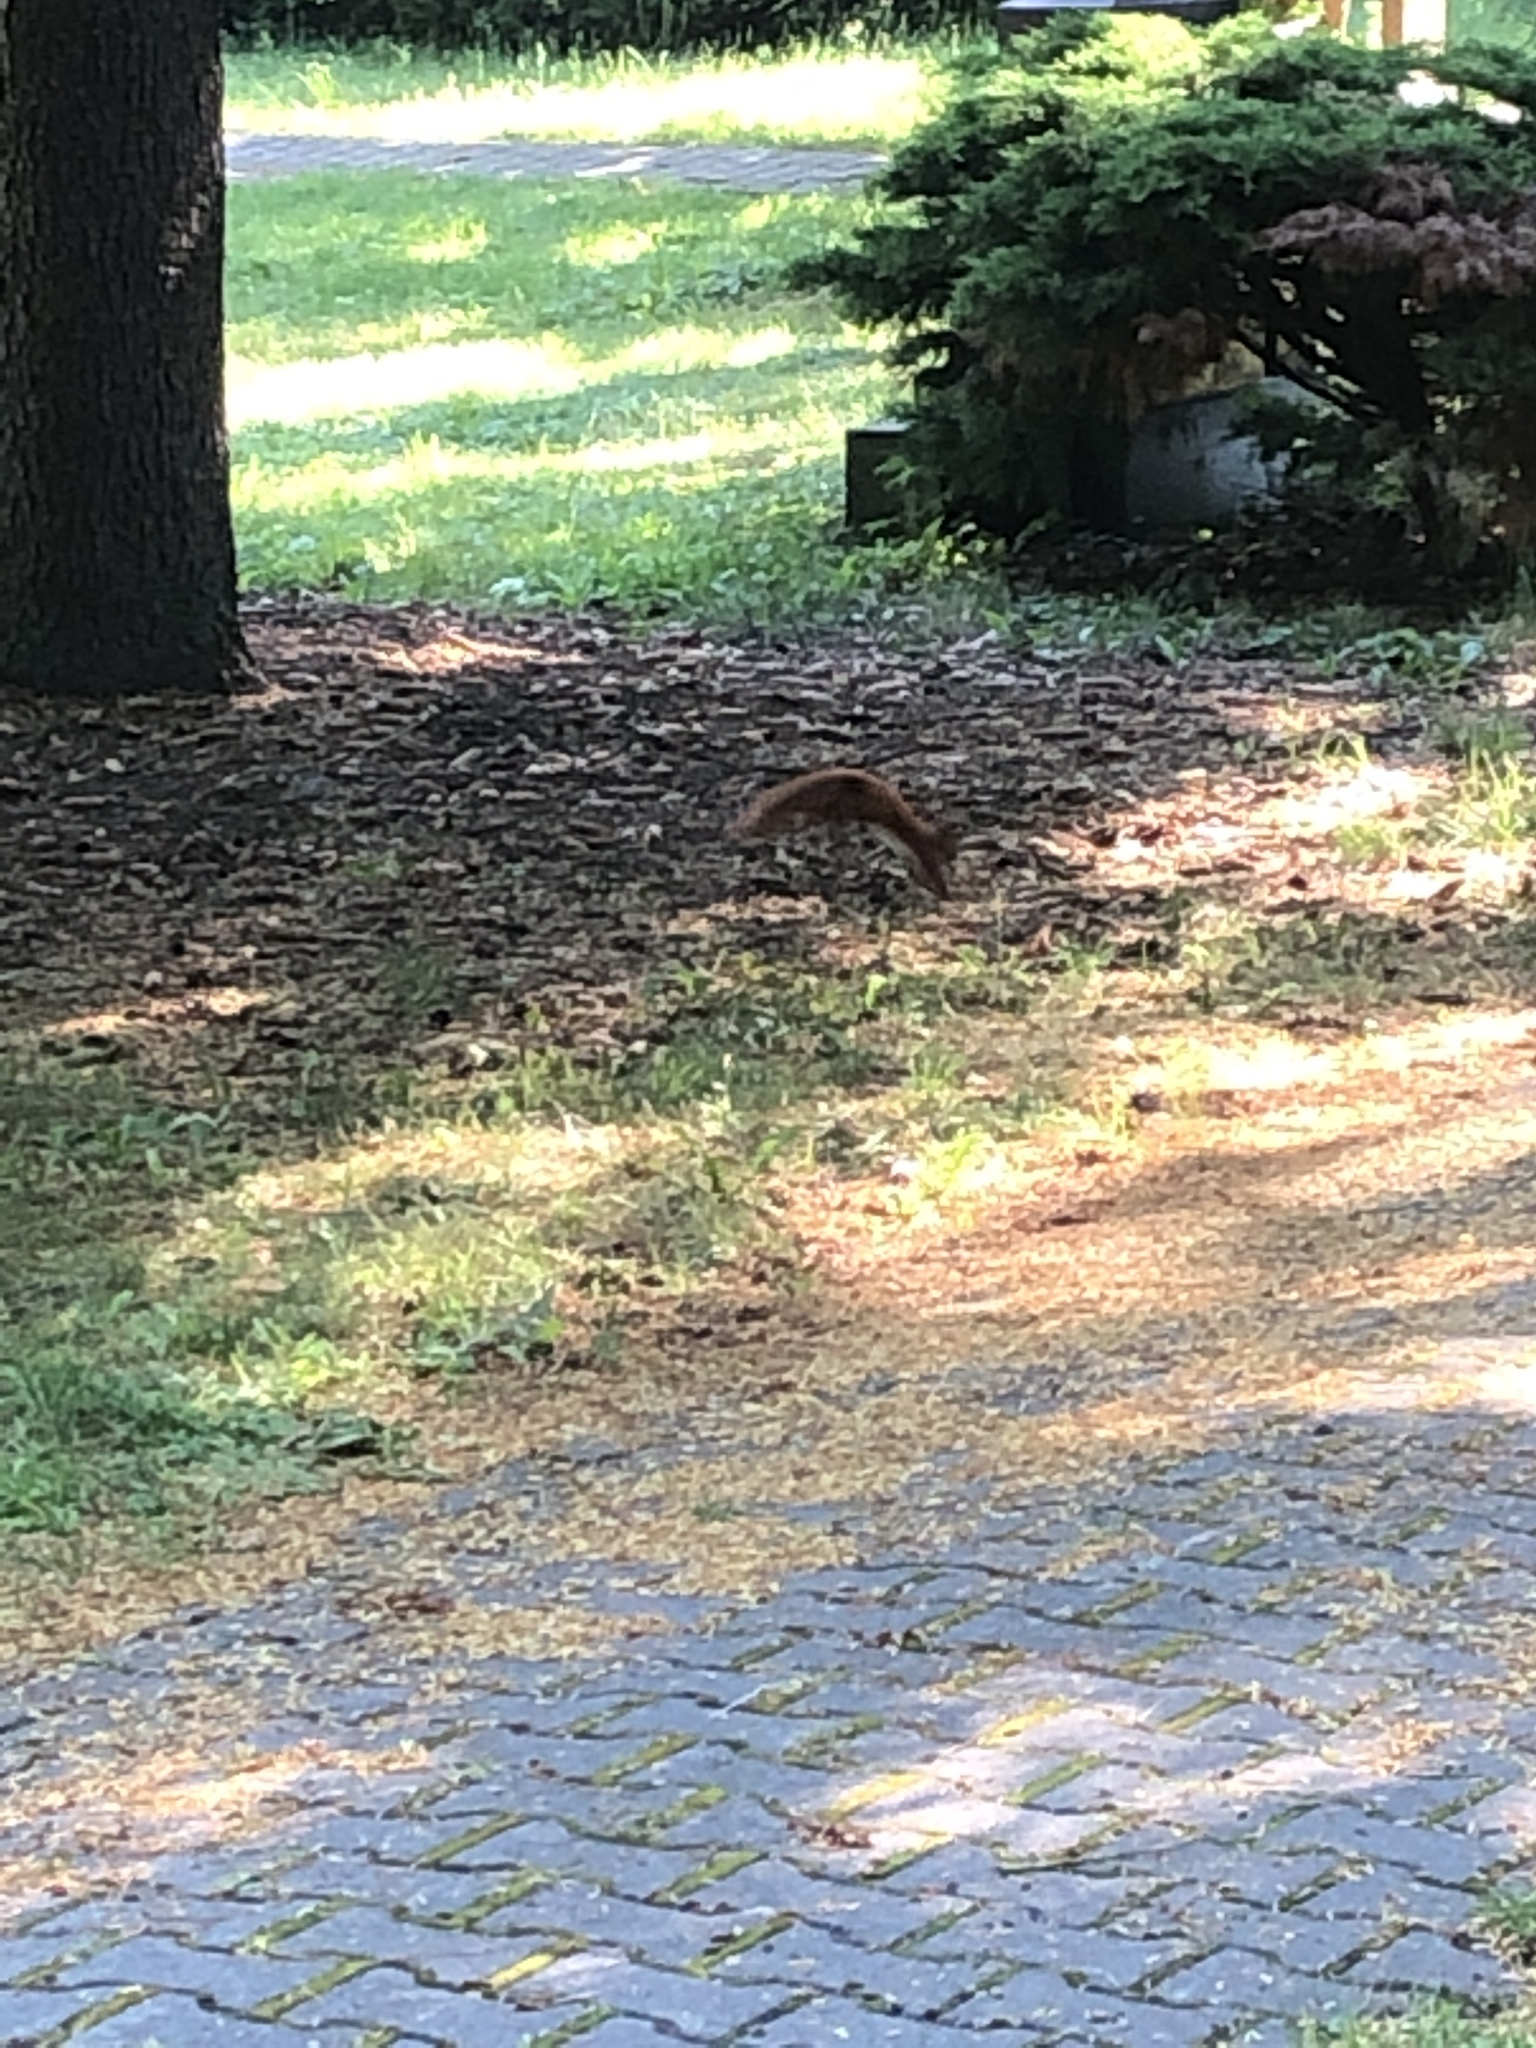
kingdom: Animalia
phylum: Chordata
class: Mammalia
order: Rodentia
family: Sciuridae
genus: Sciurus
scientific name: Sciurus vulgaris
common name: Eurasian red squirrel
